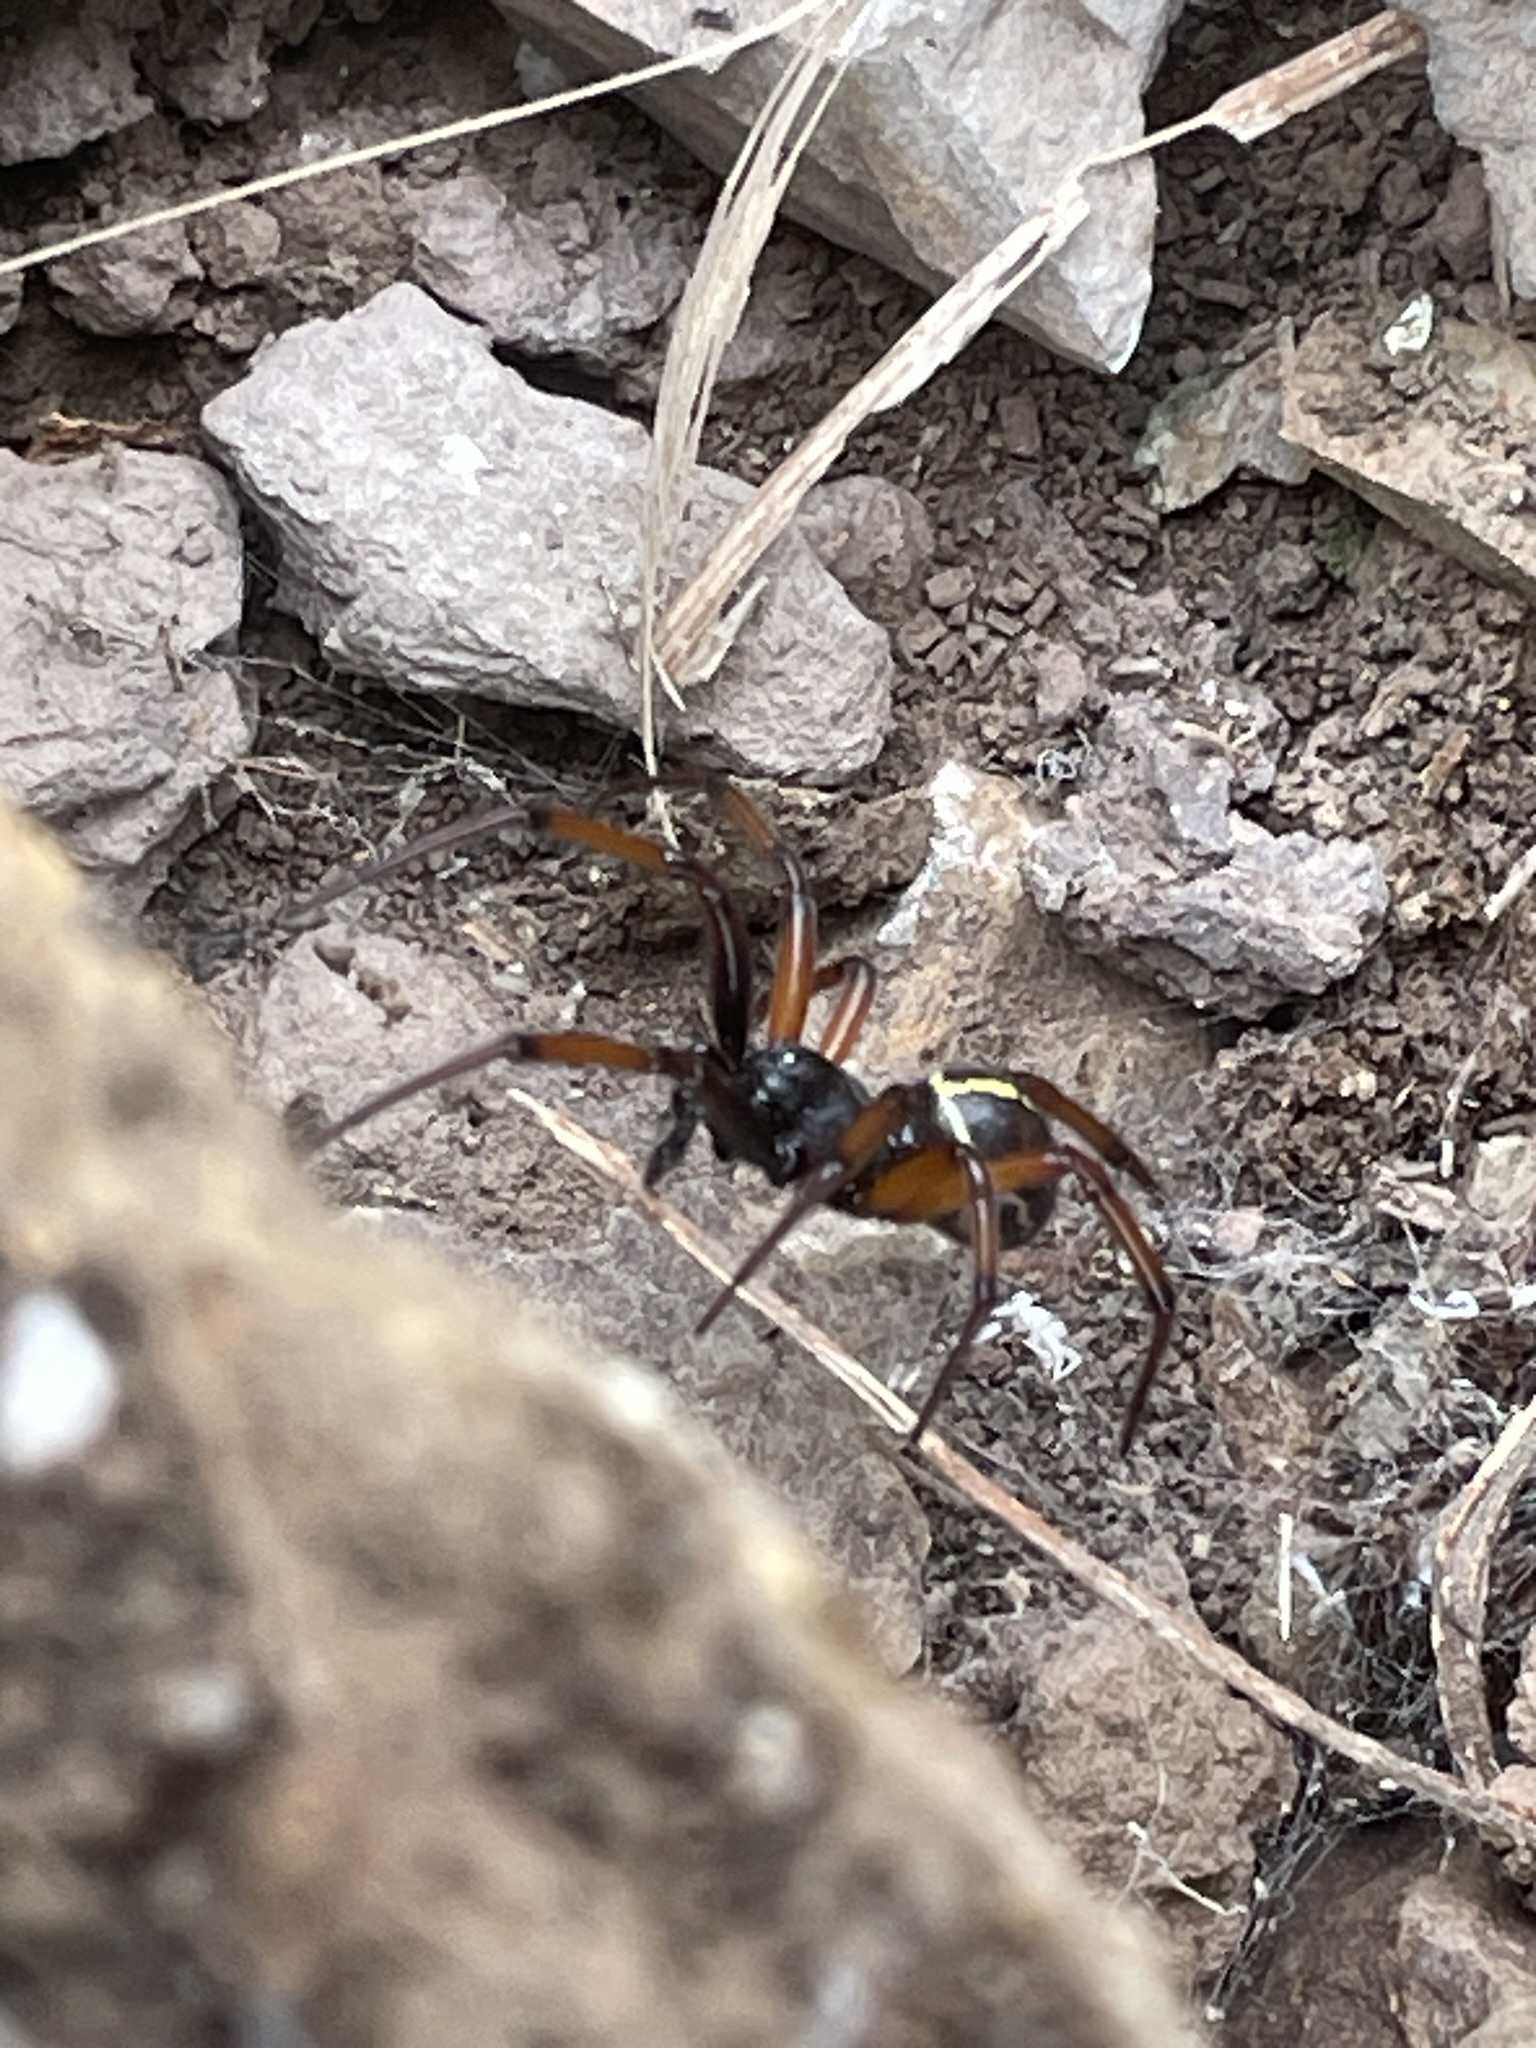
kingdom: Animalia
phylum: Arthropoda
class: Arachnida
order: Araneae
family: Theridiidae
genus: Steatoda
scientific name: Steatoda sabulosa
